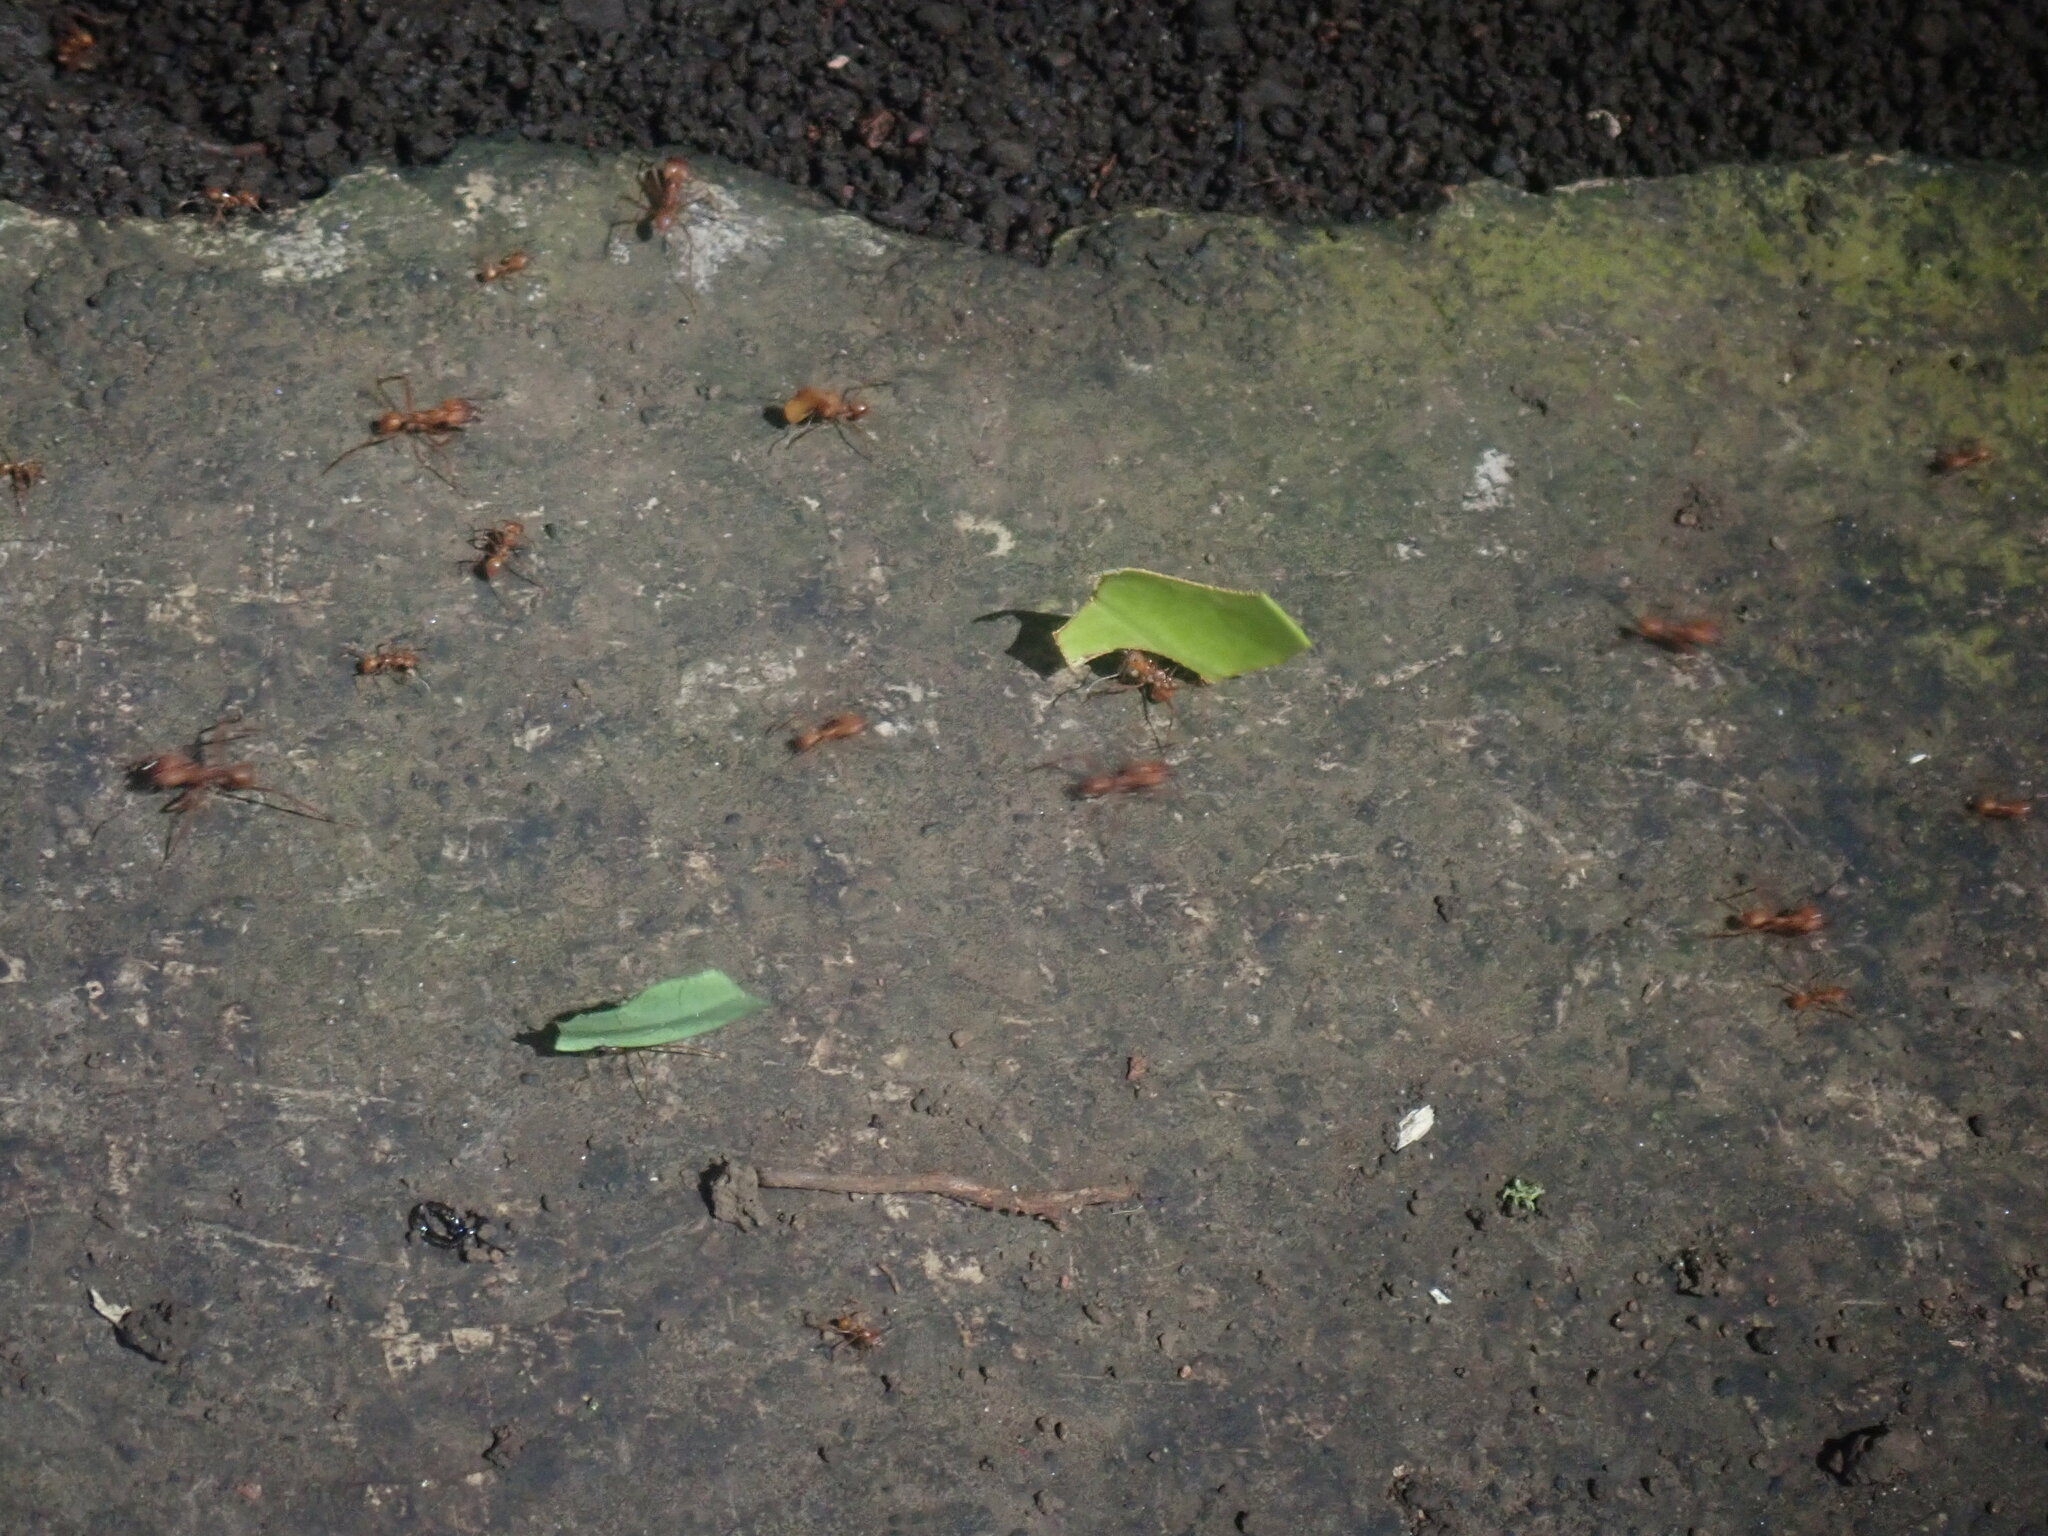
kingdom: Animalia
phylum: Arthropoda
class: Insecta
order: Hymenoptera
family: Formicidae
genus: Atta
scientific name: Atta cephalotes
